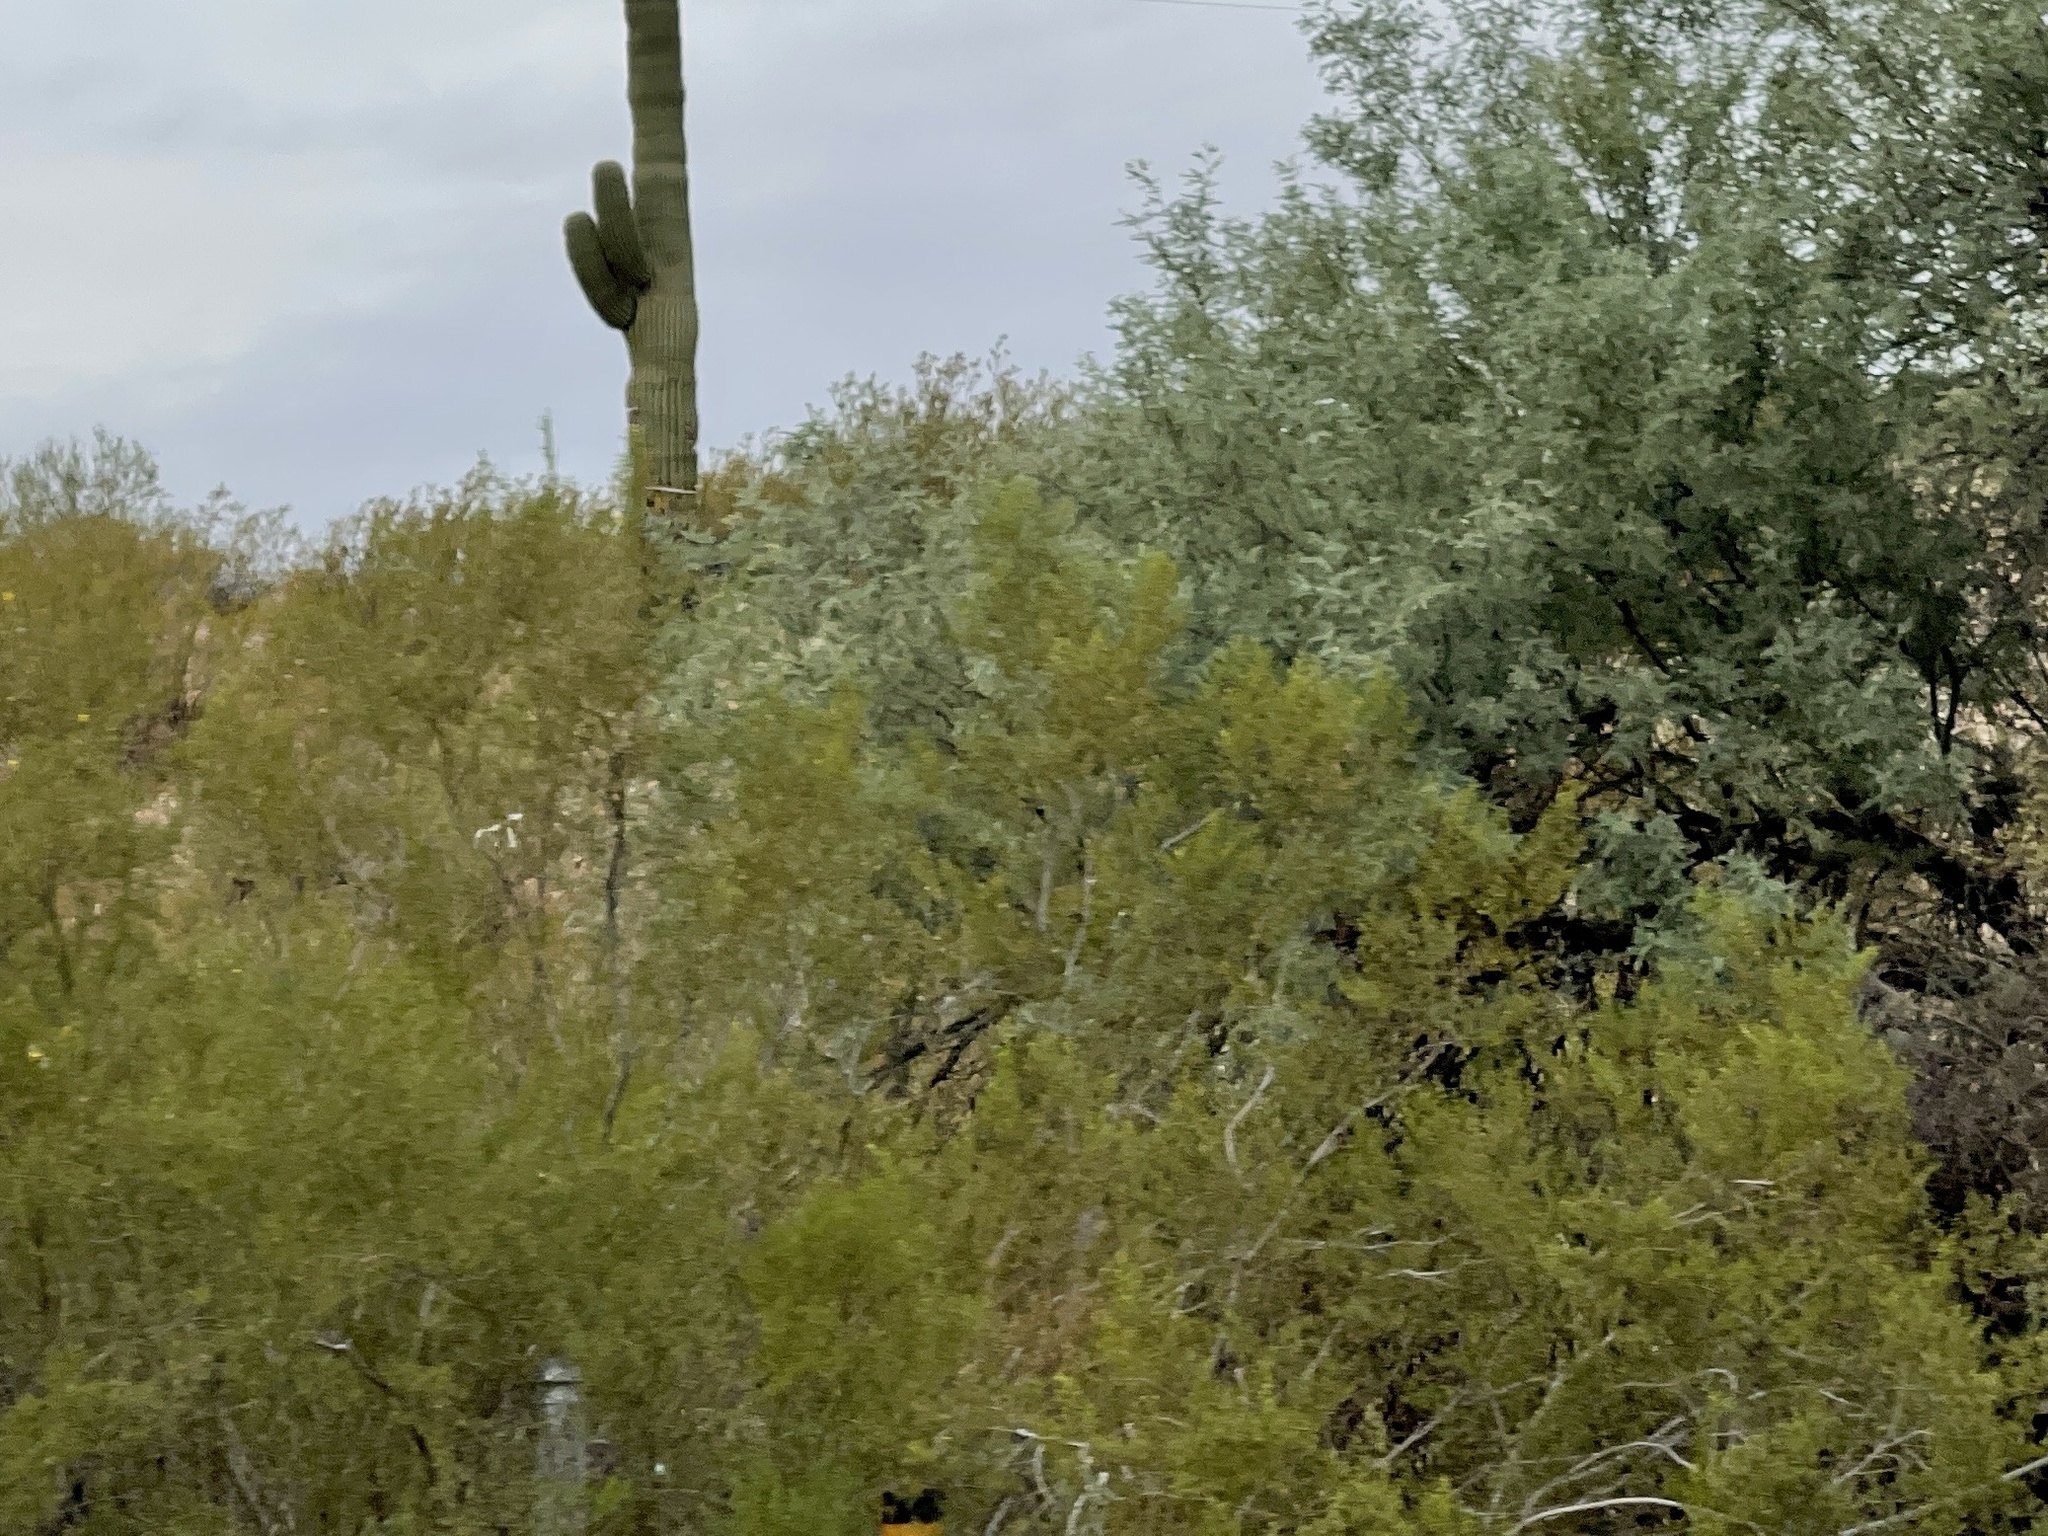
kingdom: Plantae
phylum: Tracheophyta
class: Magnoliopsida
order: Zygophyllales
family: Zygophyllaceae
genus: Larrea
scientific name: Larrea tridentata
